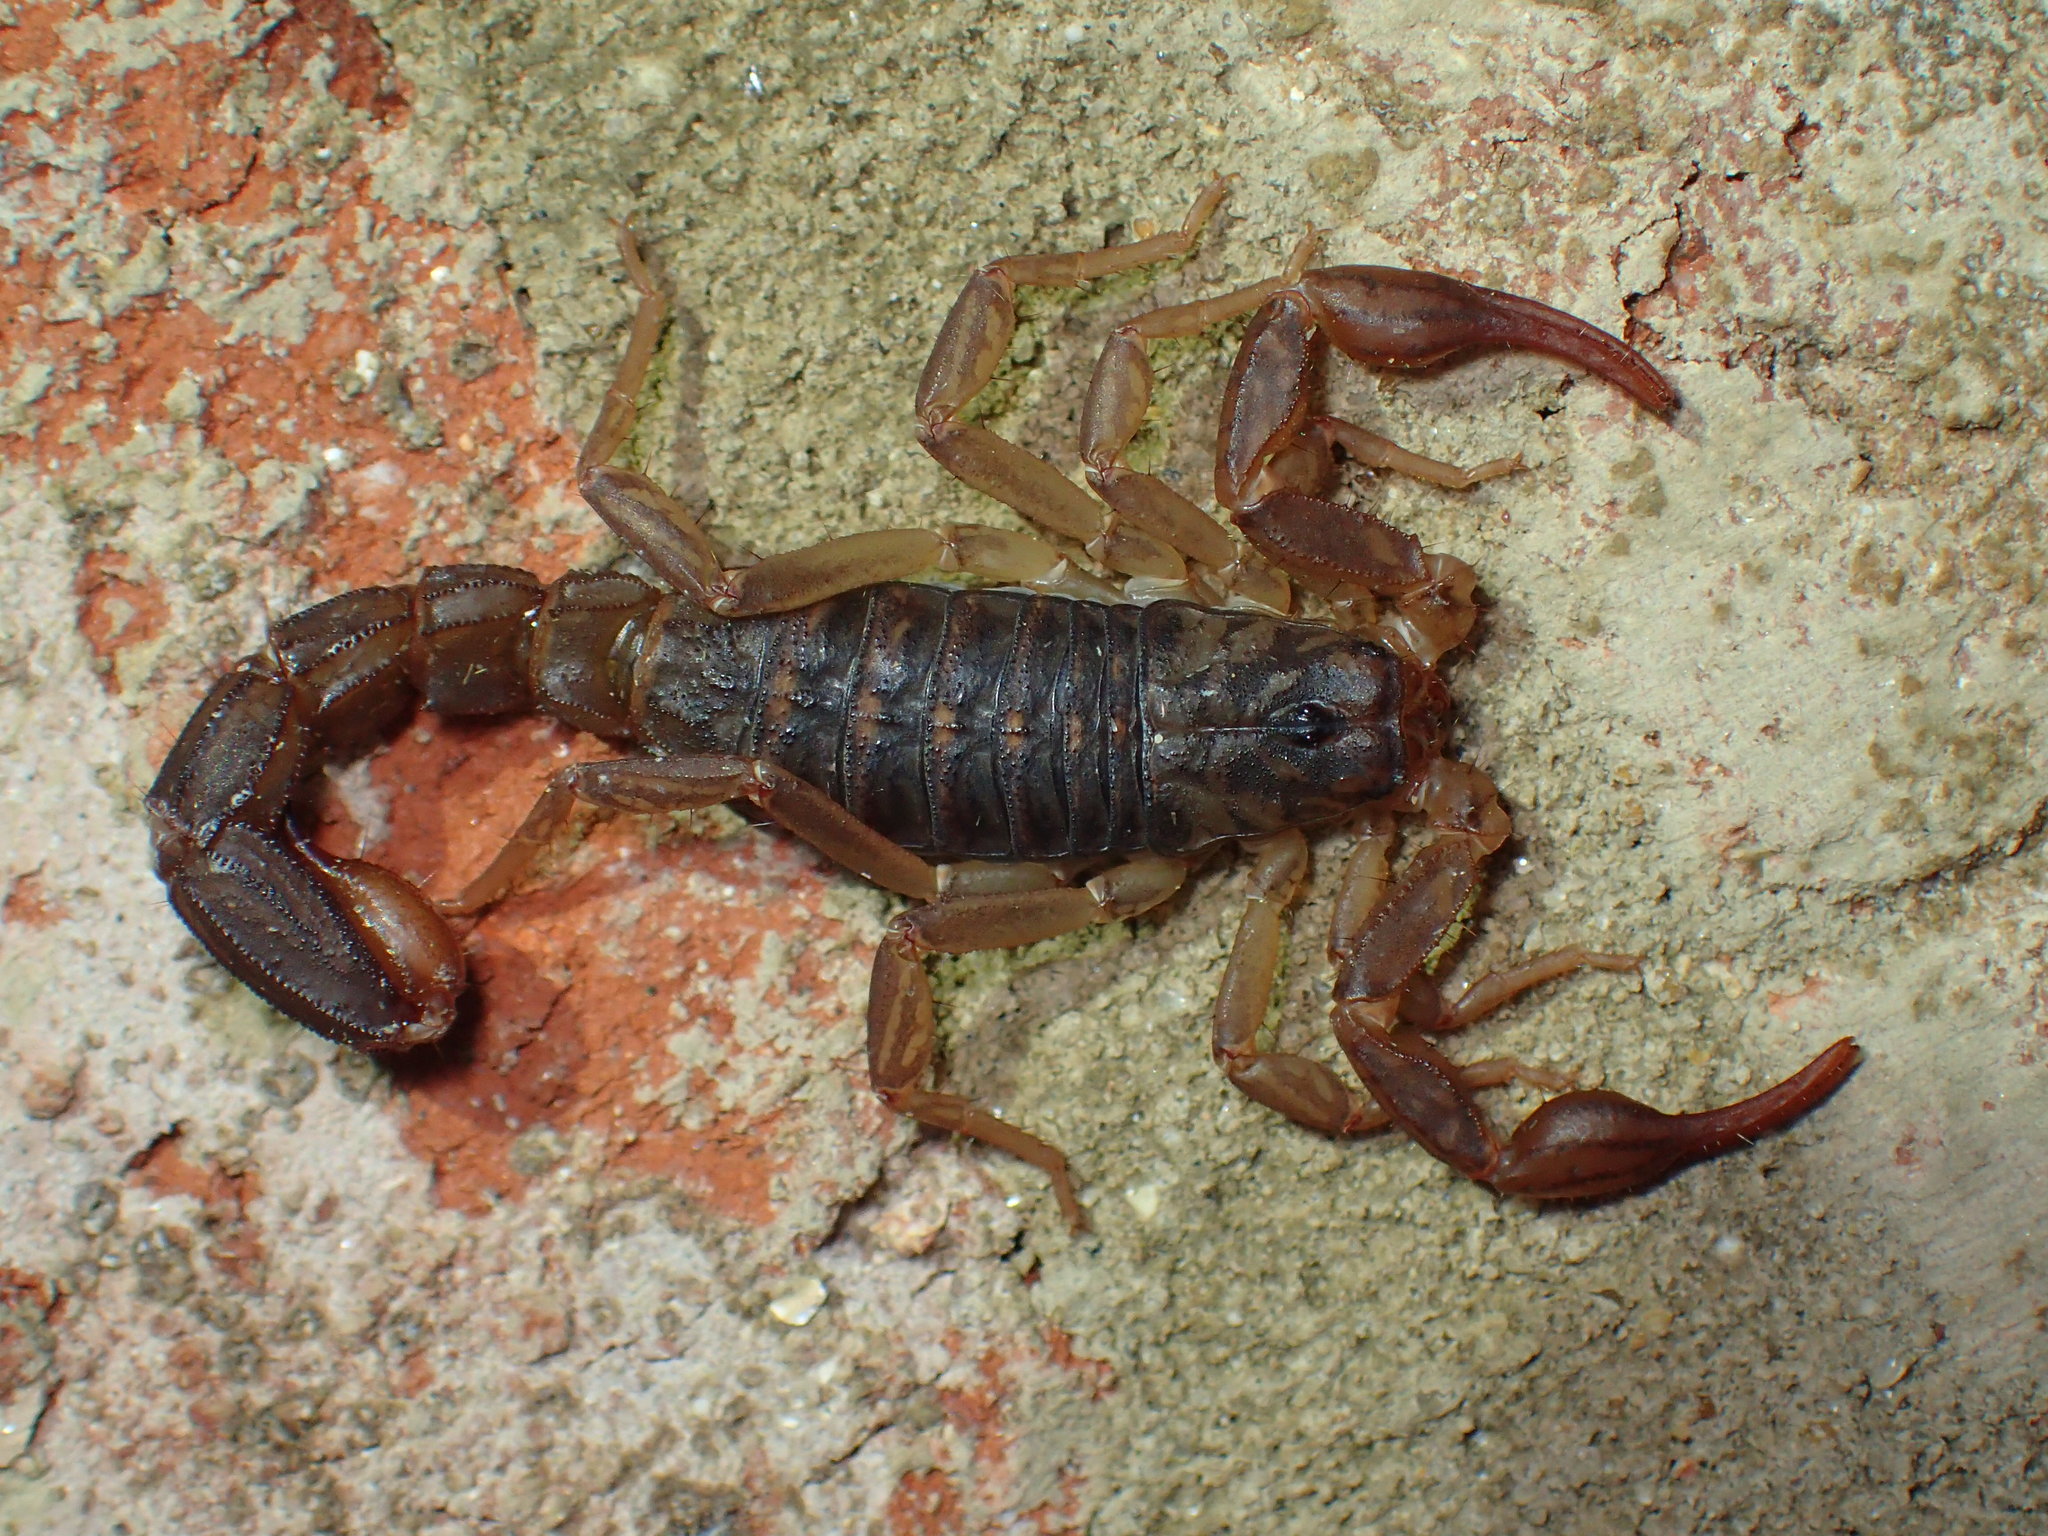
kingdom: Animalia
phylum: Arthropoda
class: Arachnida
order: Scorpiones
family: Vaejovidae
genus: Vaejovis
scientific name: Vaejovis carolinianus
